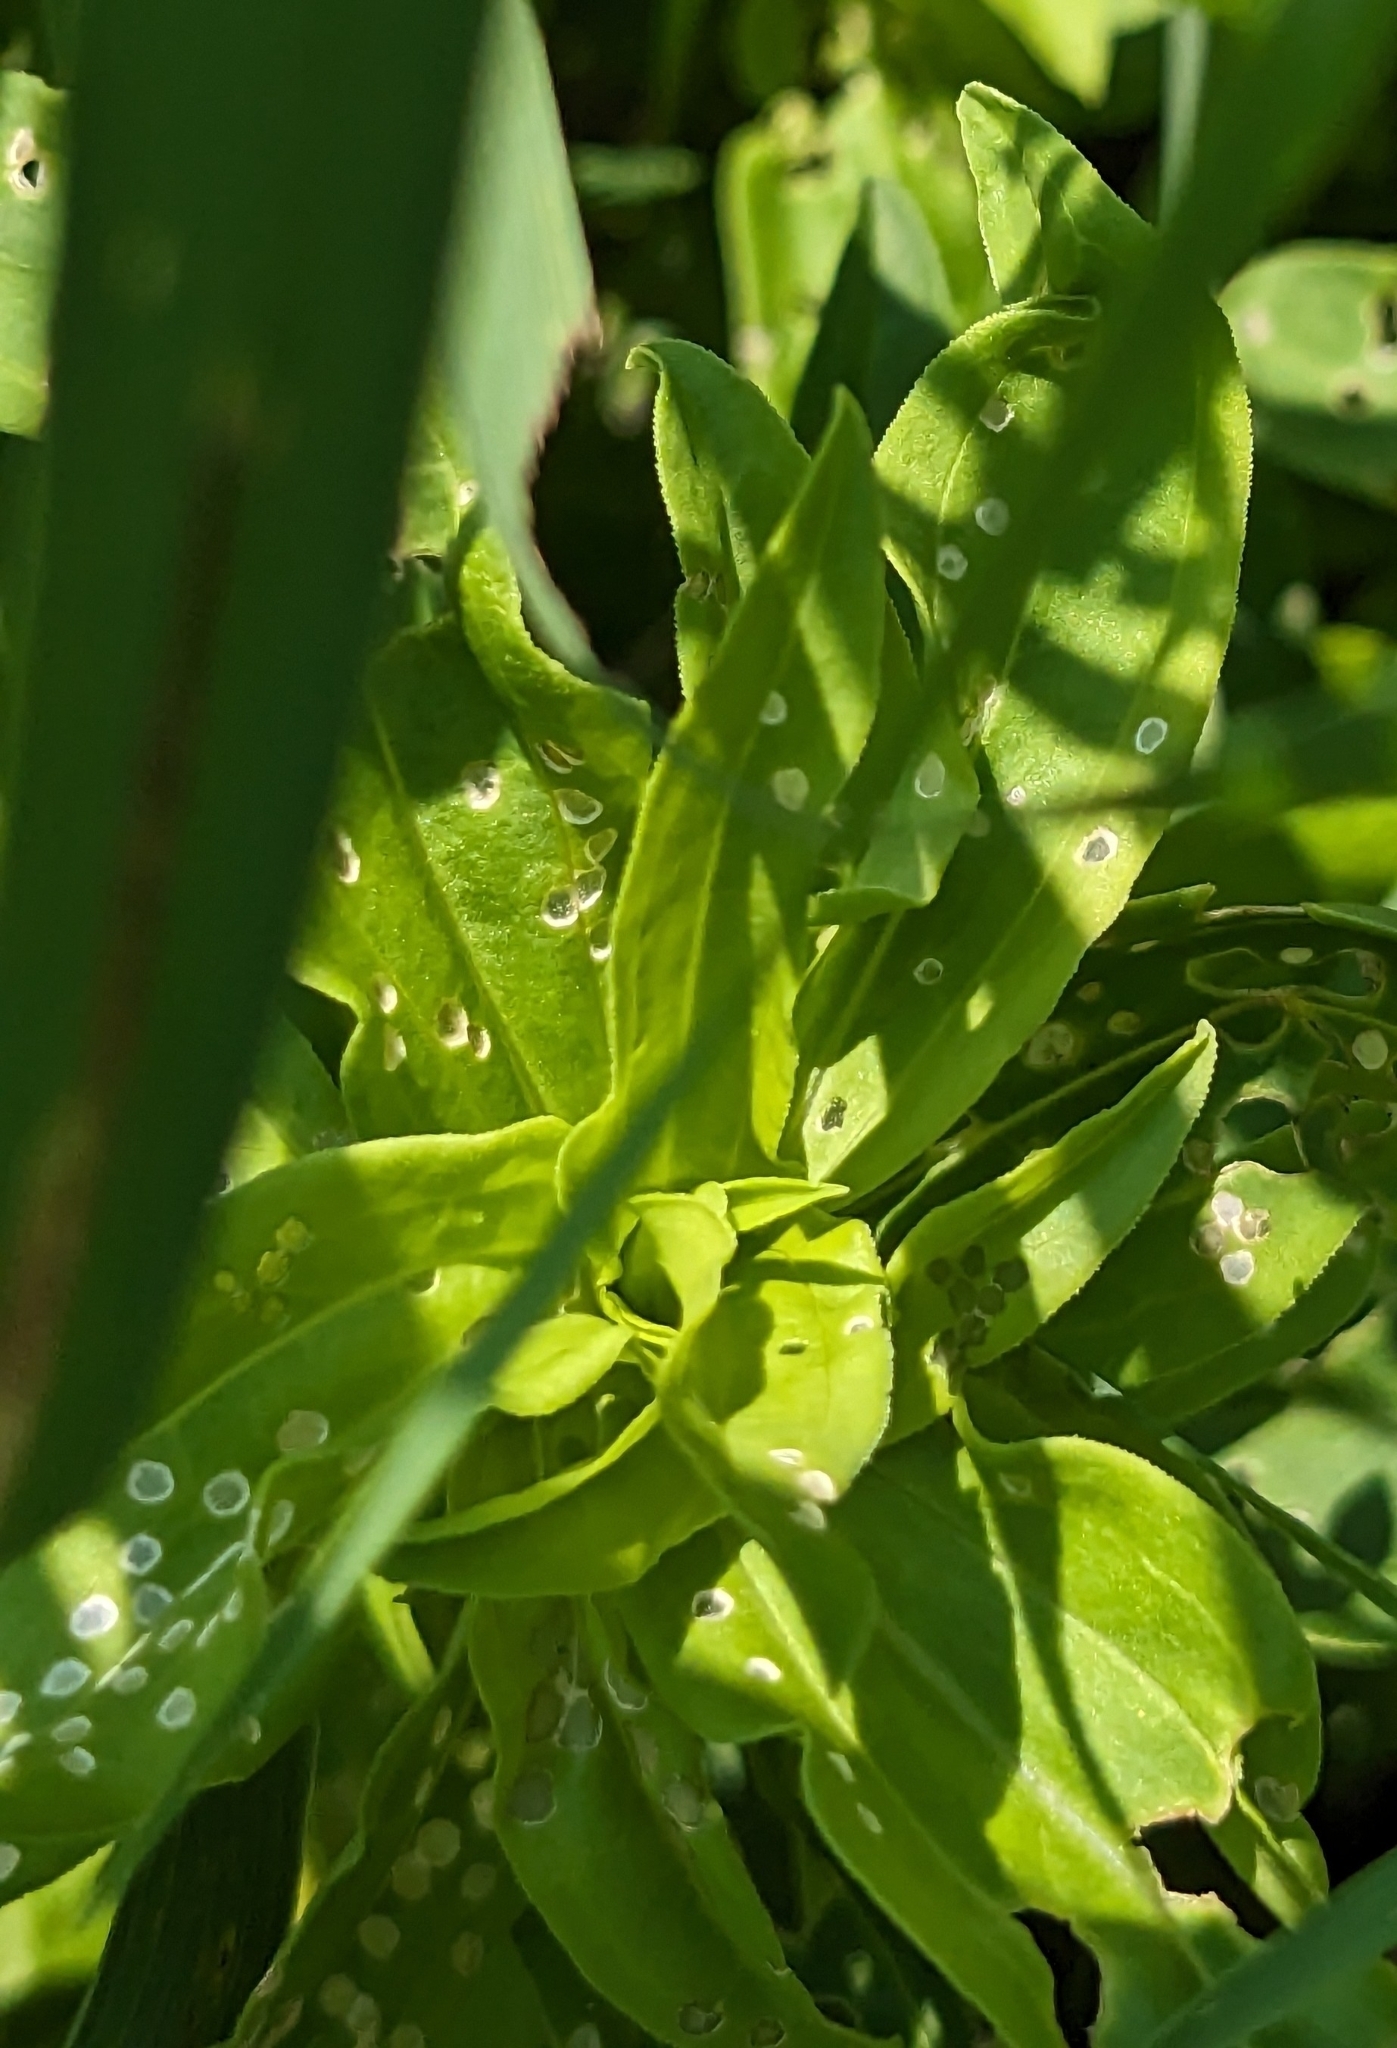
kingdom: Plantae
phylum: Tracheophyta
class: Magnoliopsida
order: Caryophyllales
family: Caryophyllaceae
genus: Saponaria
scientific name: Saponaria officinalis
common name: Soapwort
